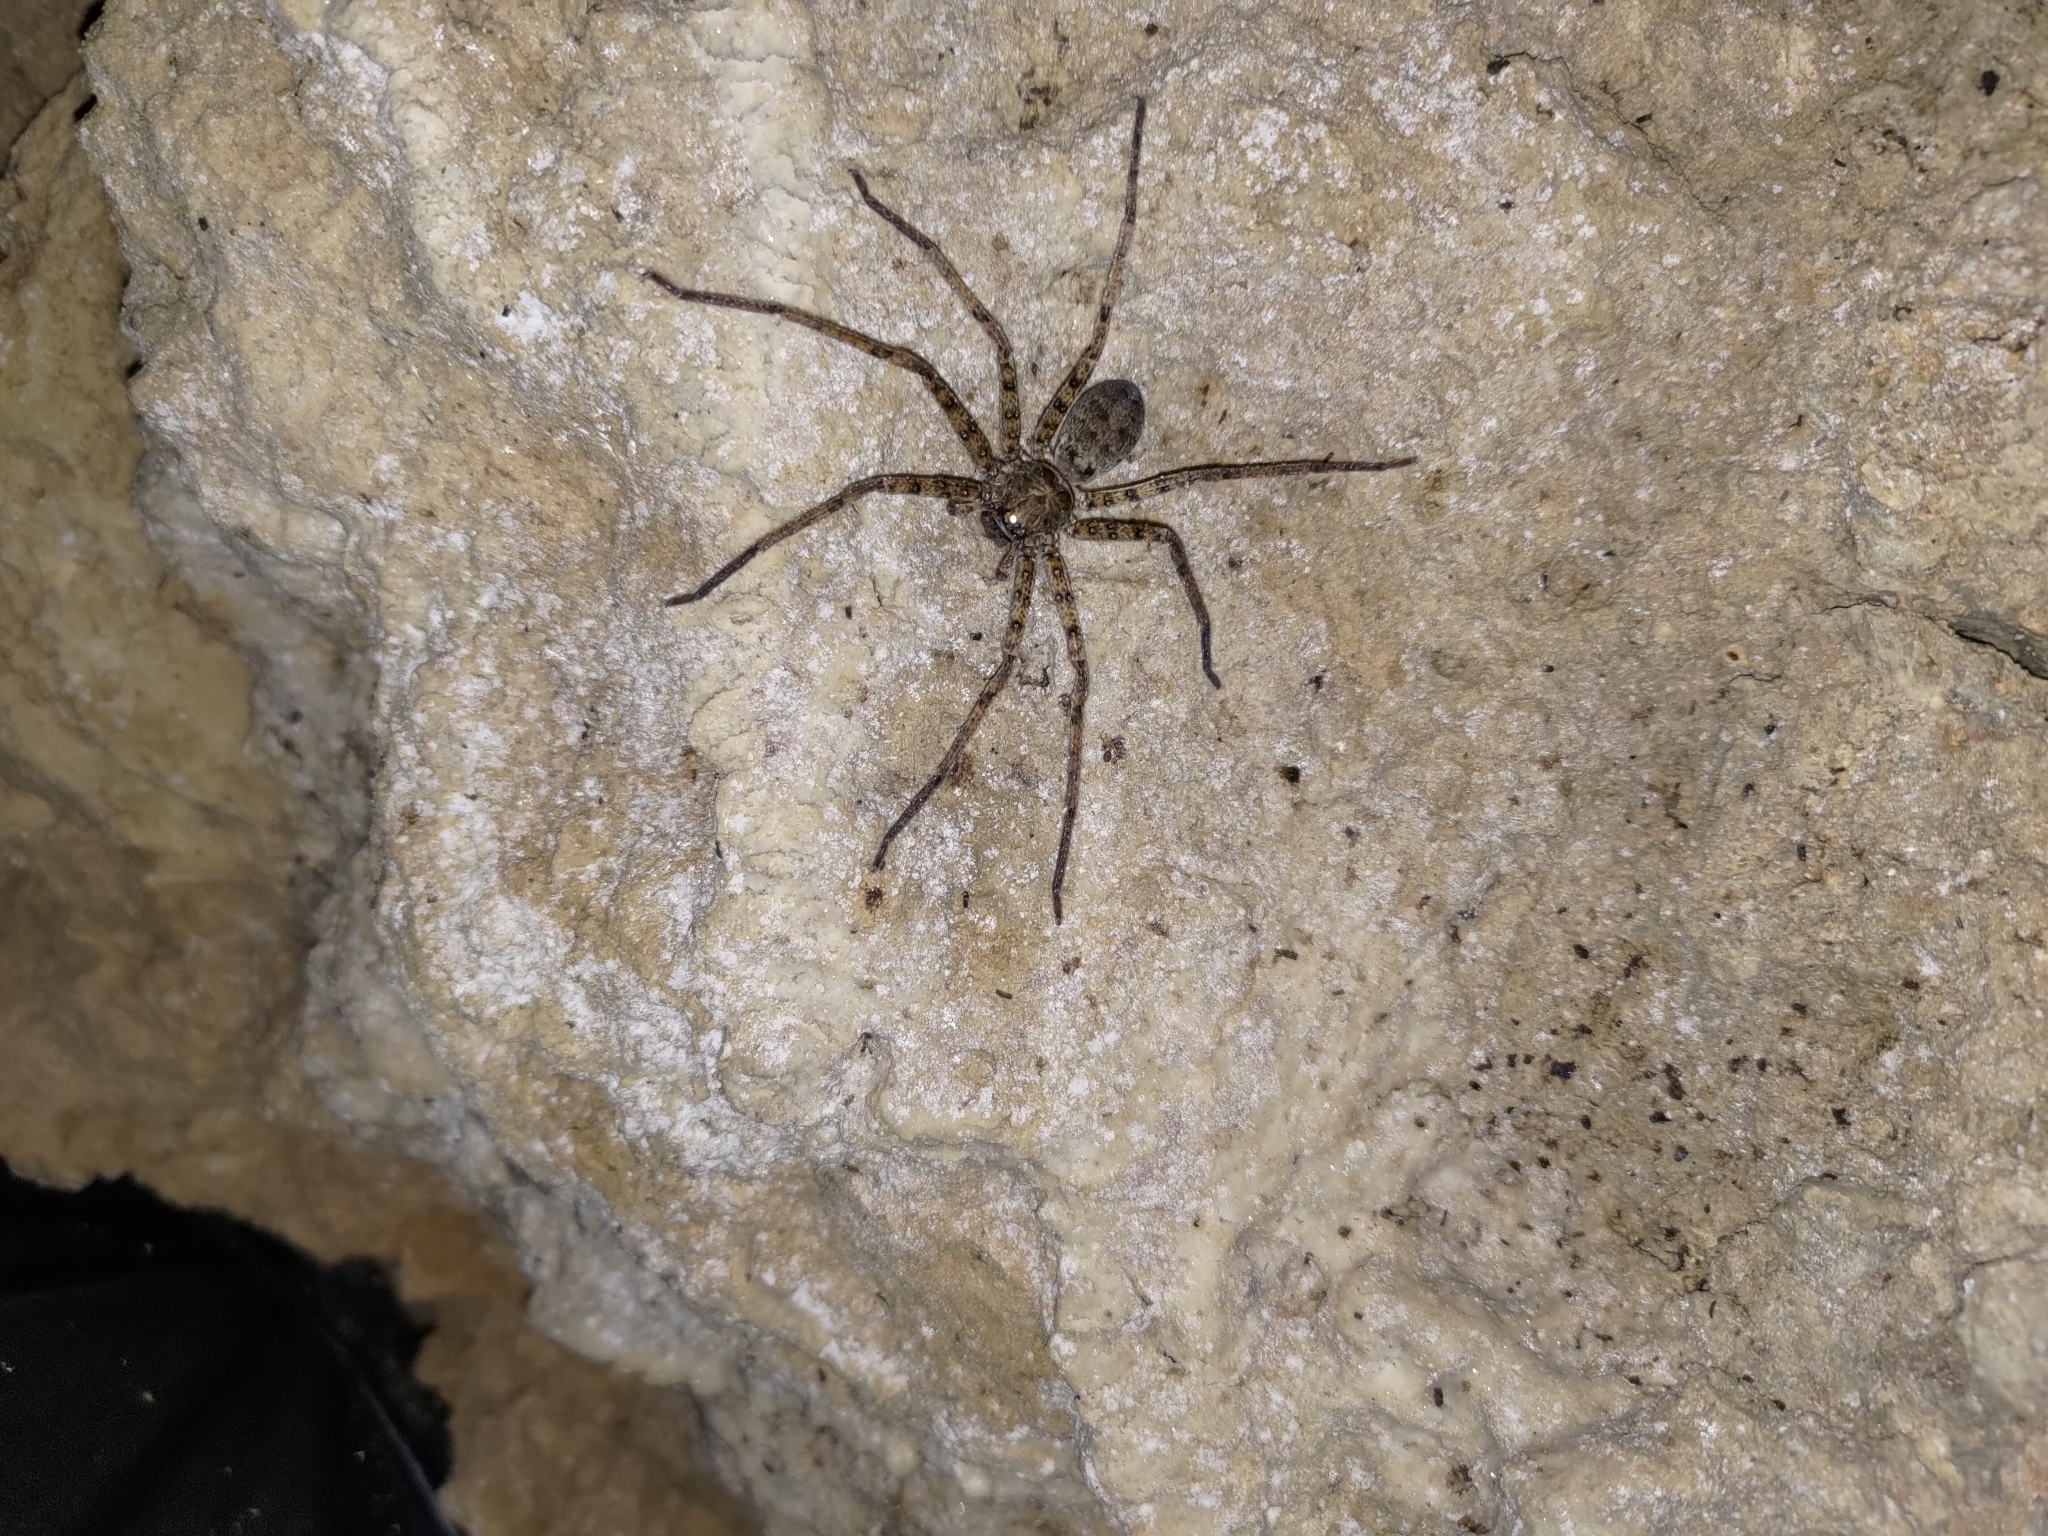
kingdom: Animalia
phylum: Arthropoda
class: Arachnida
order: Araneae
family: Sparassidae
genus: Heteropoda
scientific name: Heteropoda venatoria
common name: Huntsman spider
